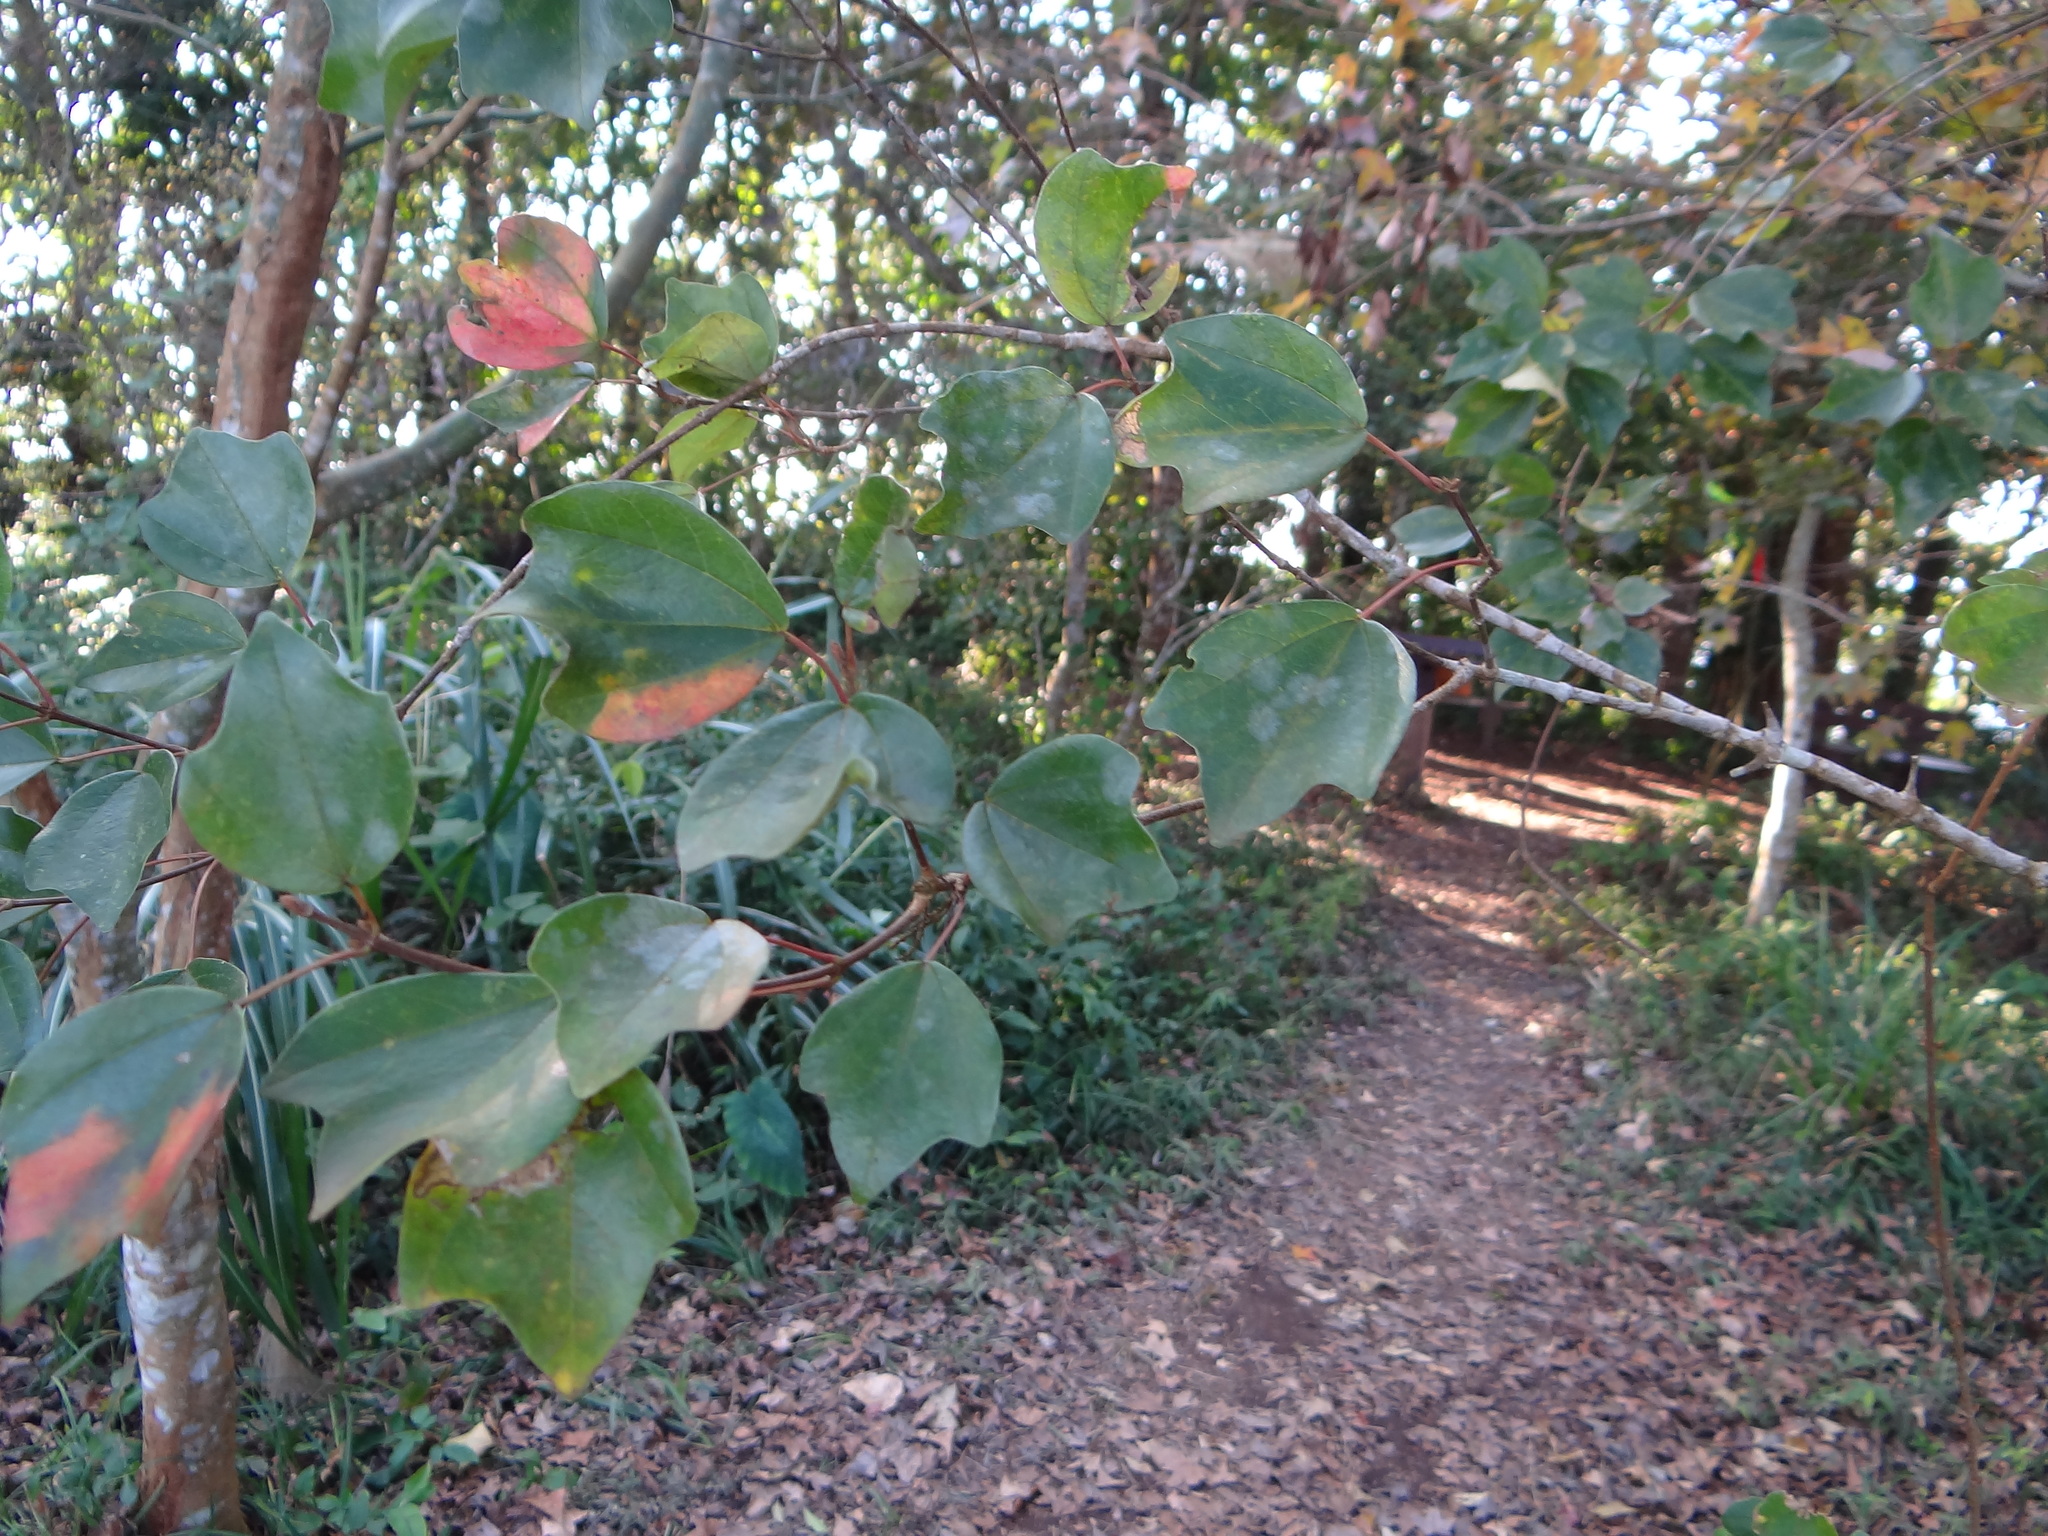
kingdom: Plantae
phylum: Tracheophyta
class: Magnoliopsida
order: Sapindales
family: Sapindaceae
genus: Acer
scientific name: Acer buergerianum
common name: Trident maple
